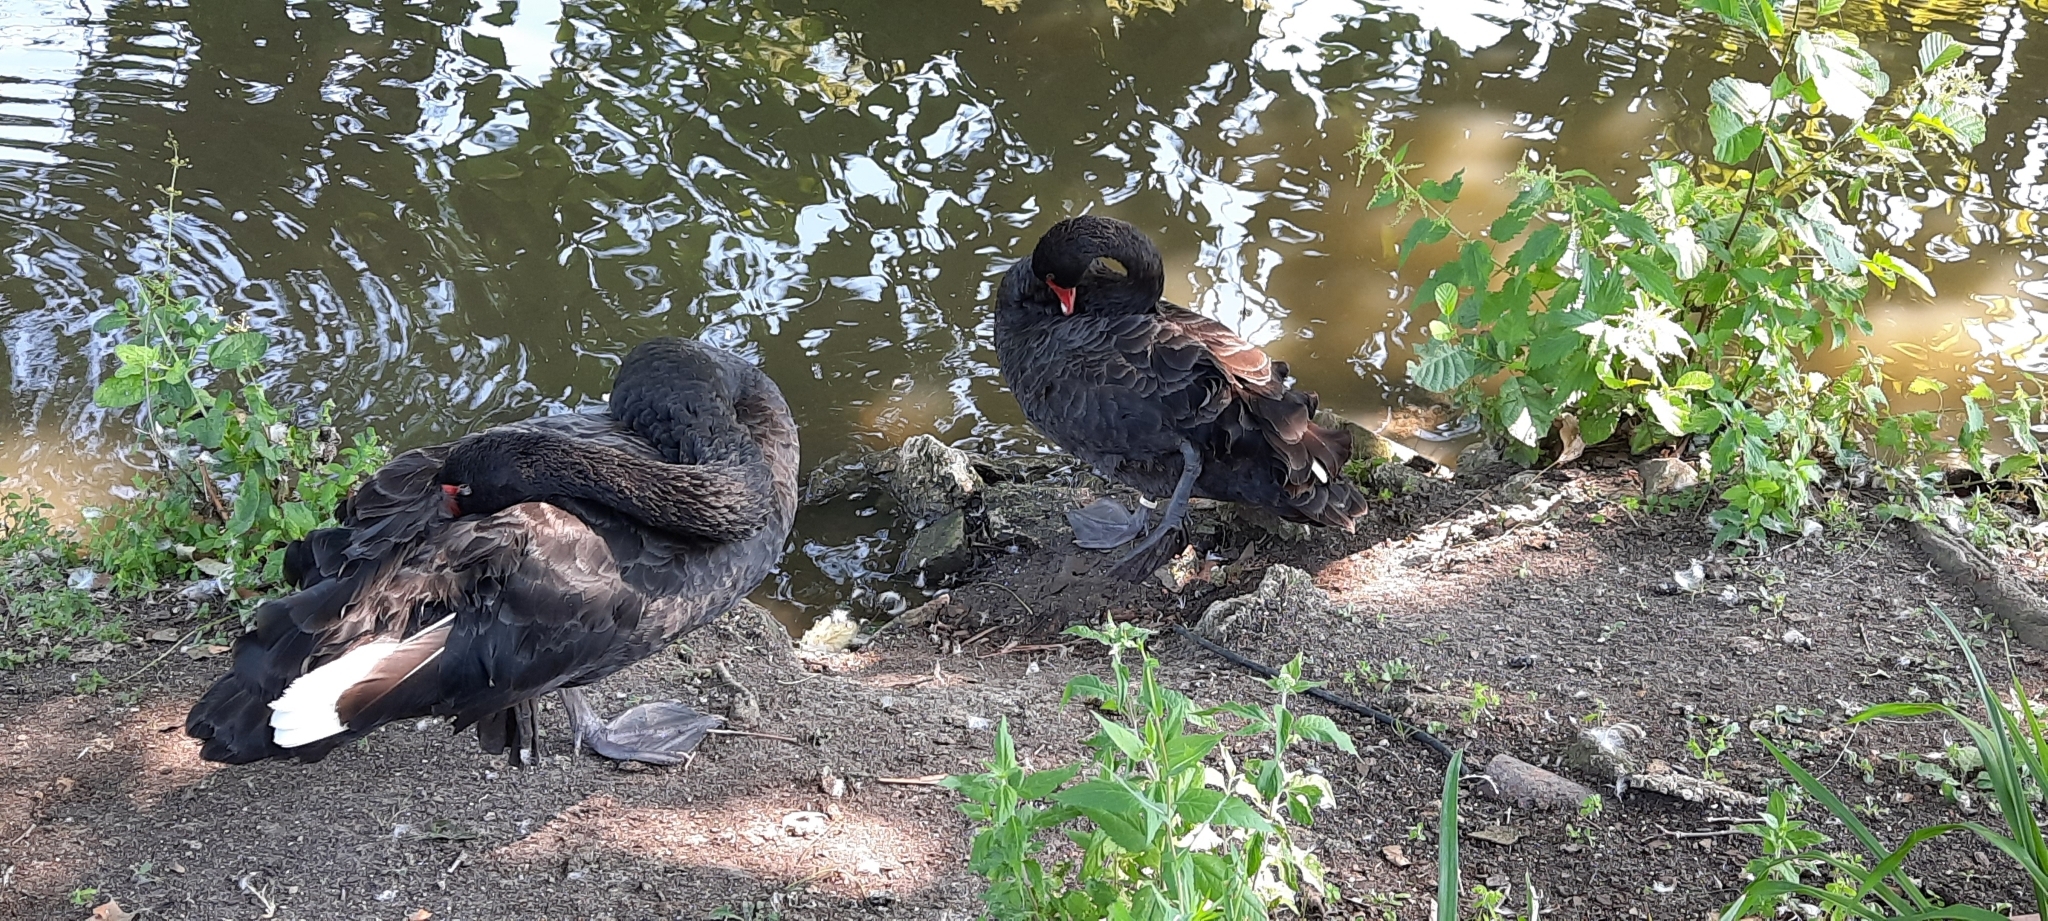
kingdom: Animalia
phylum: Chordata
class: Aves
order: Anseriformes
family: Anatidae
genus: Cygnus
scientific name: Cygnus atratus
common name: Black swan
